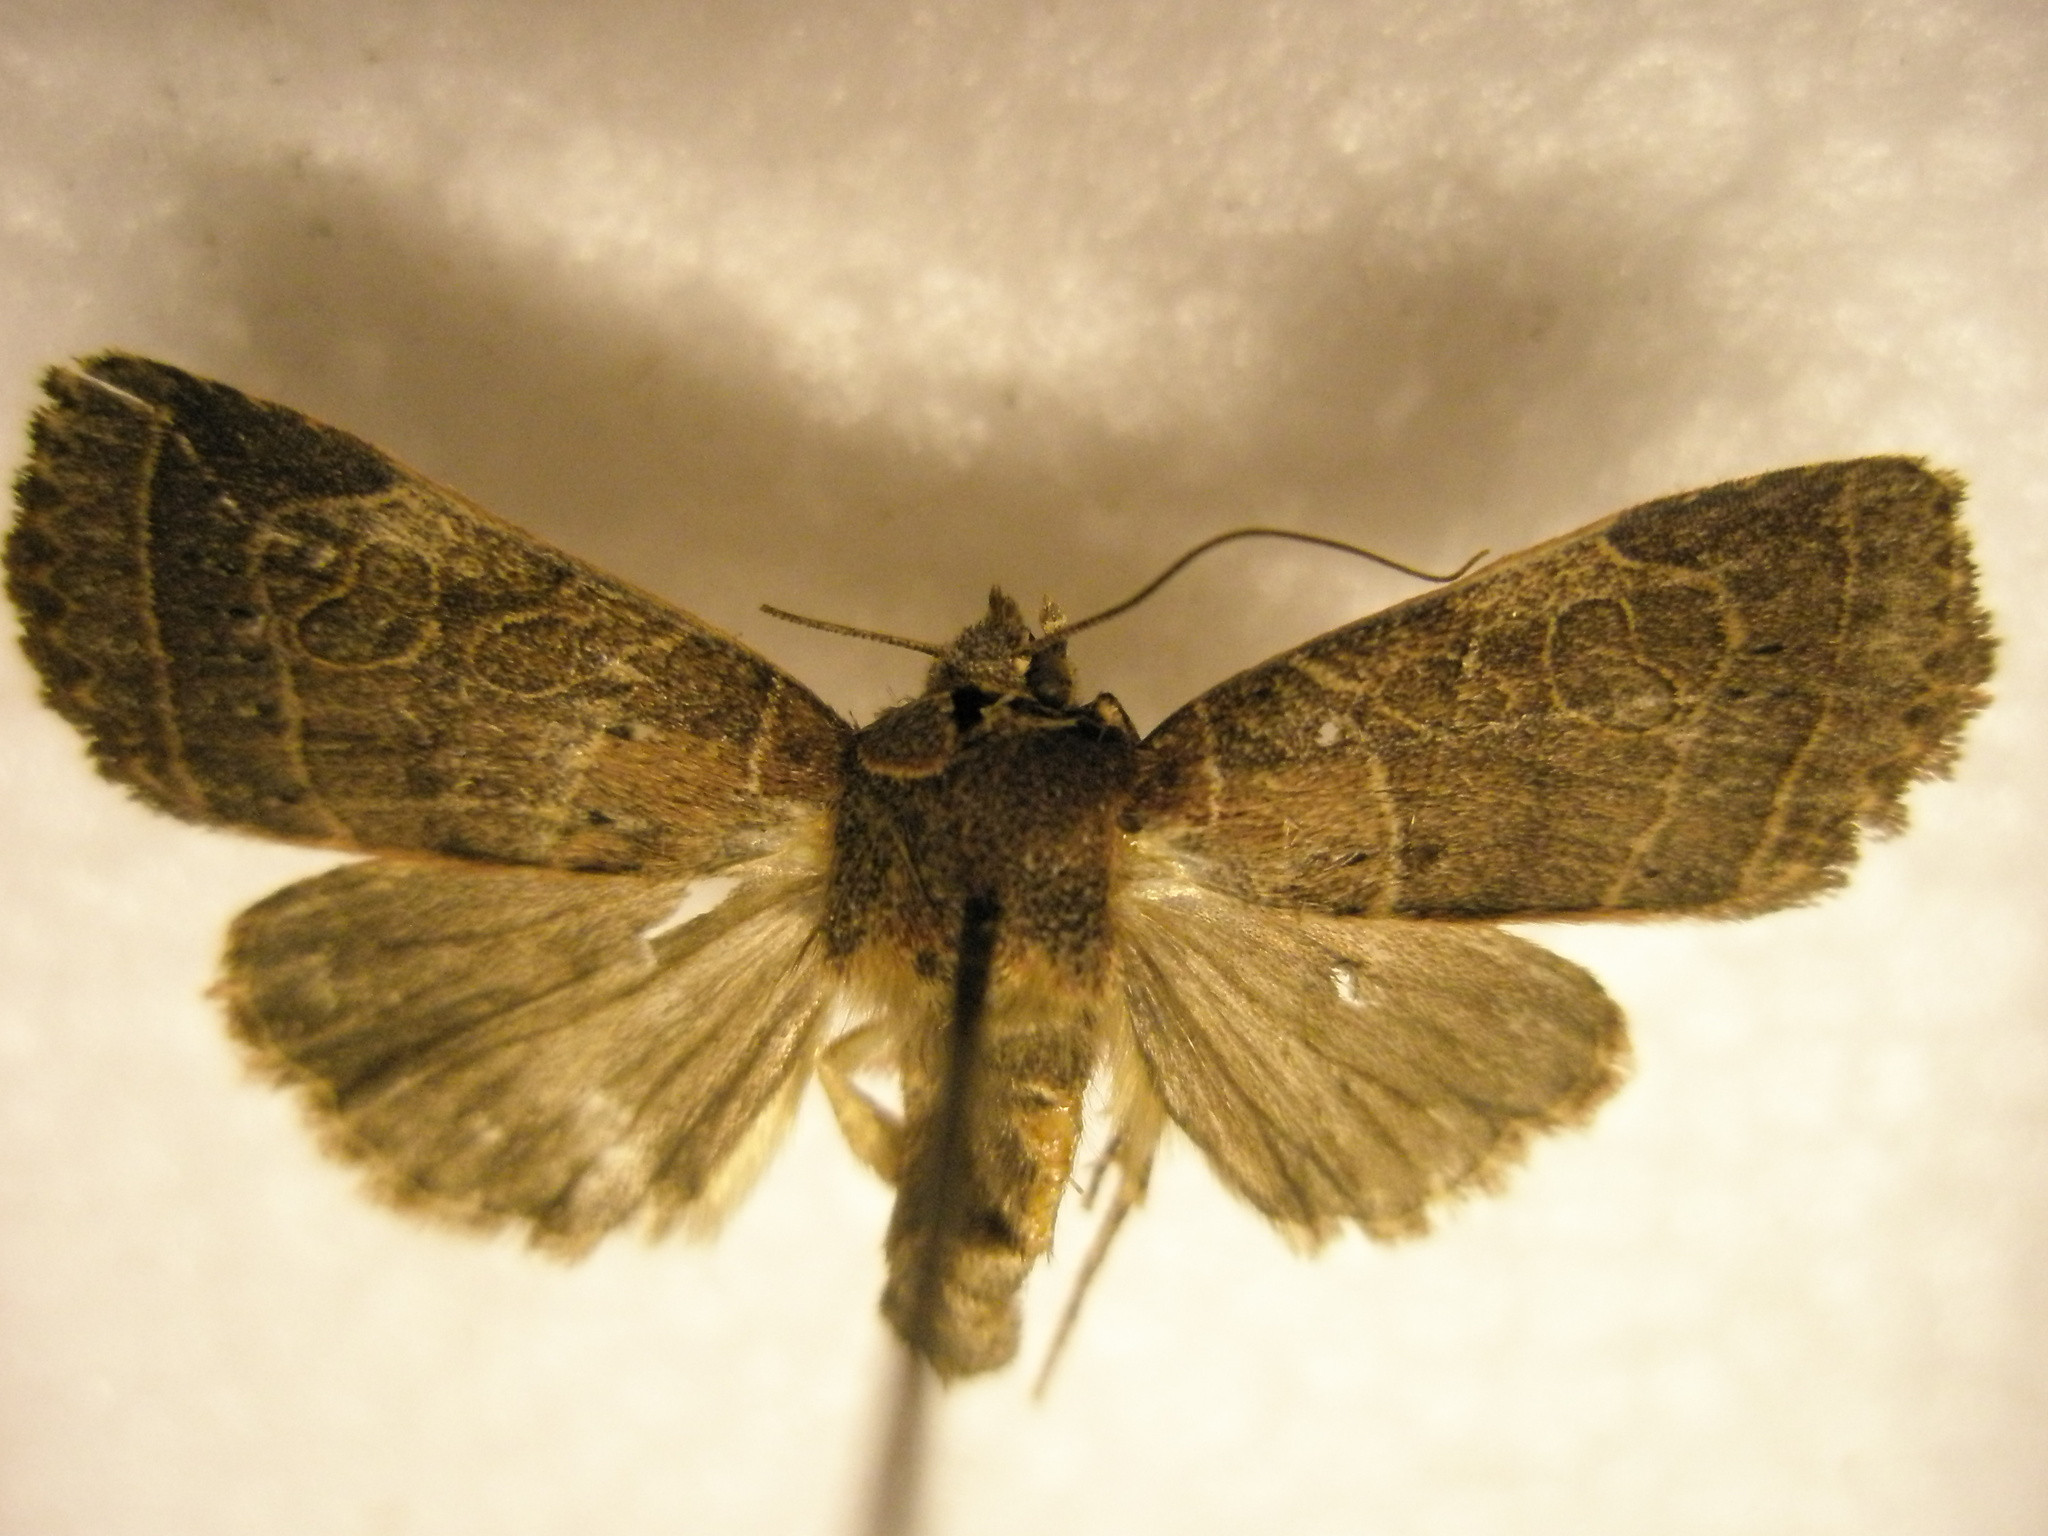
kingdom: Animalia
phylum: Arthropoda
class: Insecta
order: Lepidoptera
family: Noctuidae
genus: Orthodes
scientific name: Orthodes majuscula
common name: Rustic quaker
